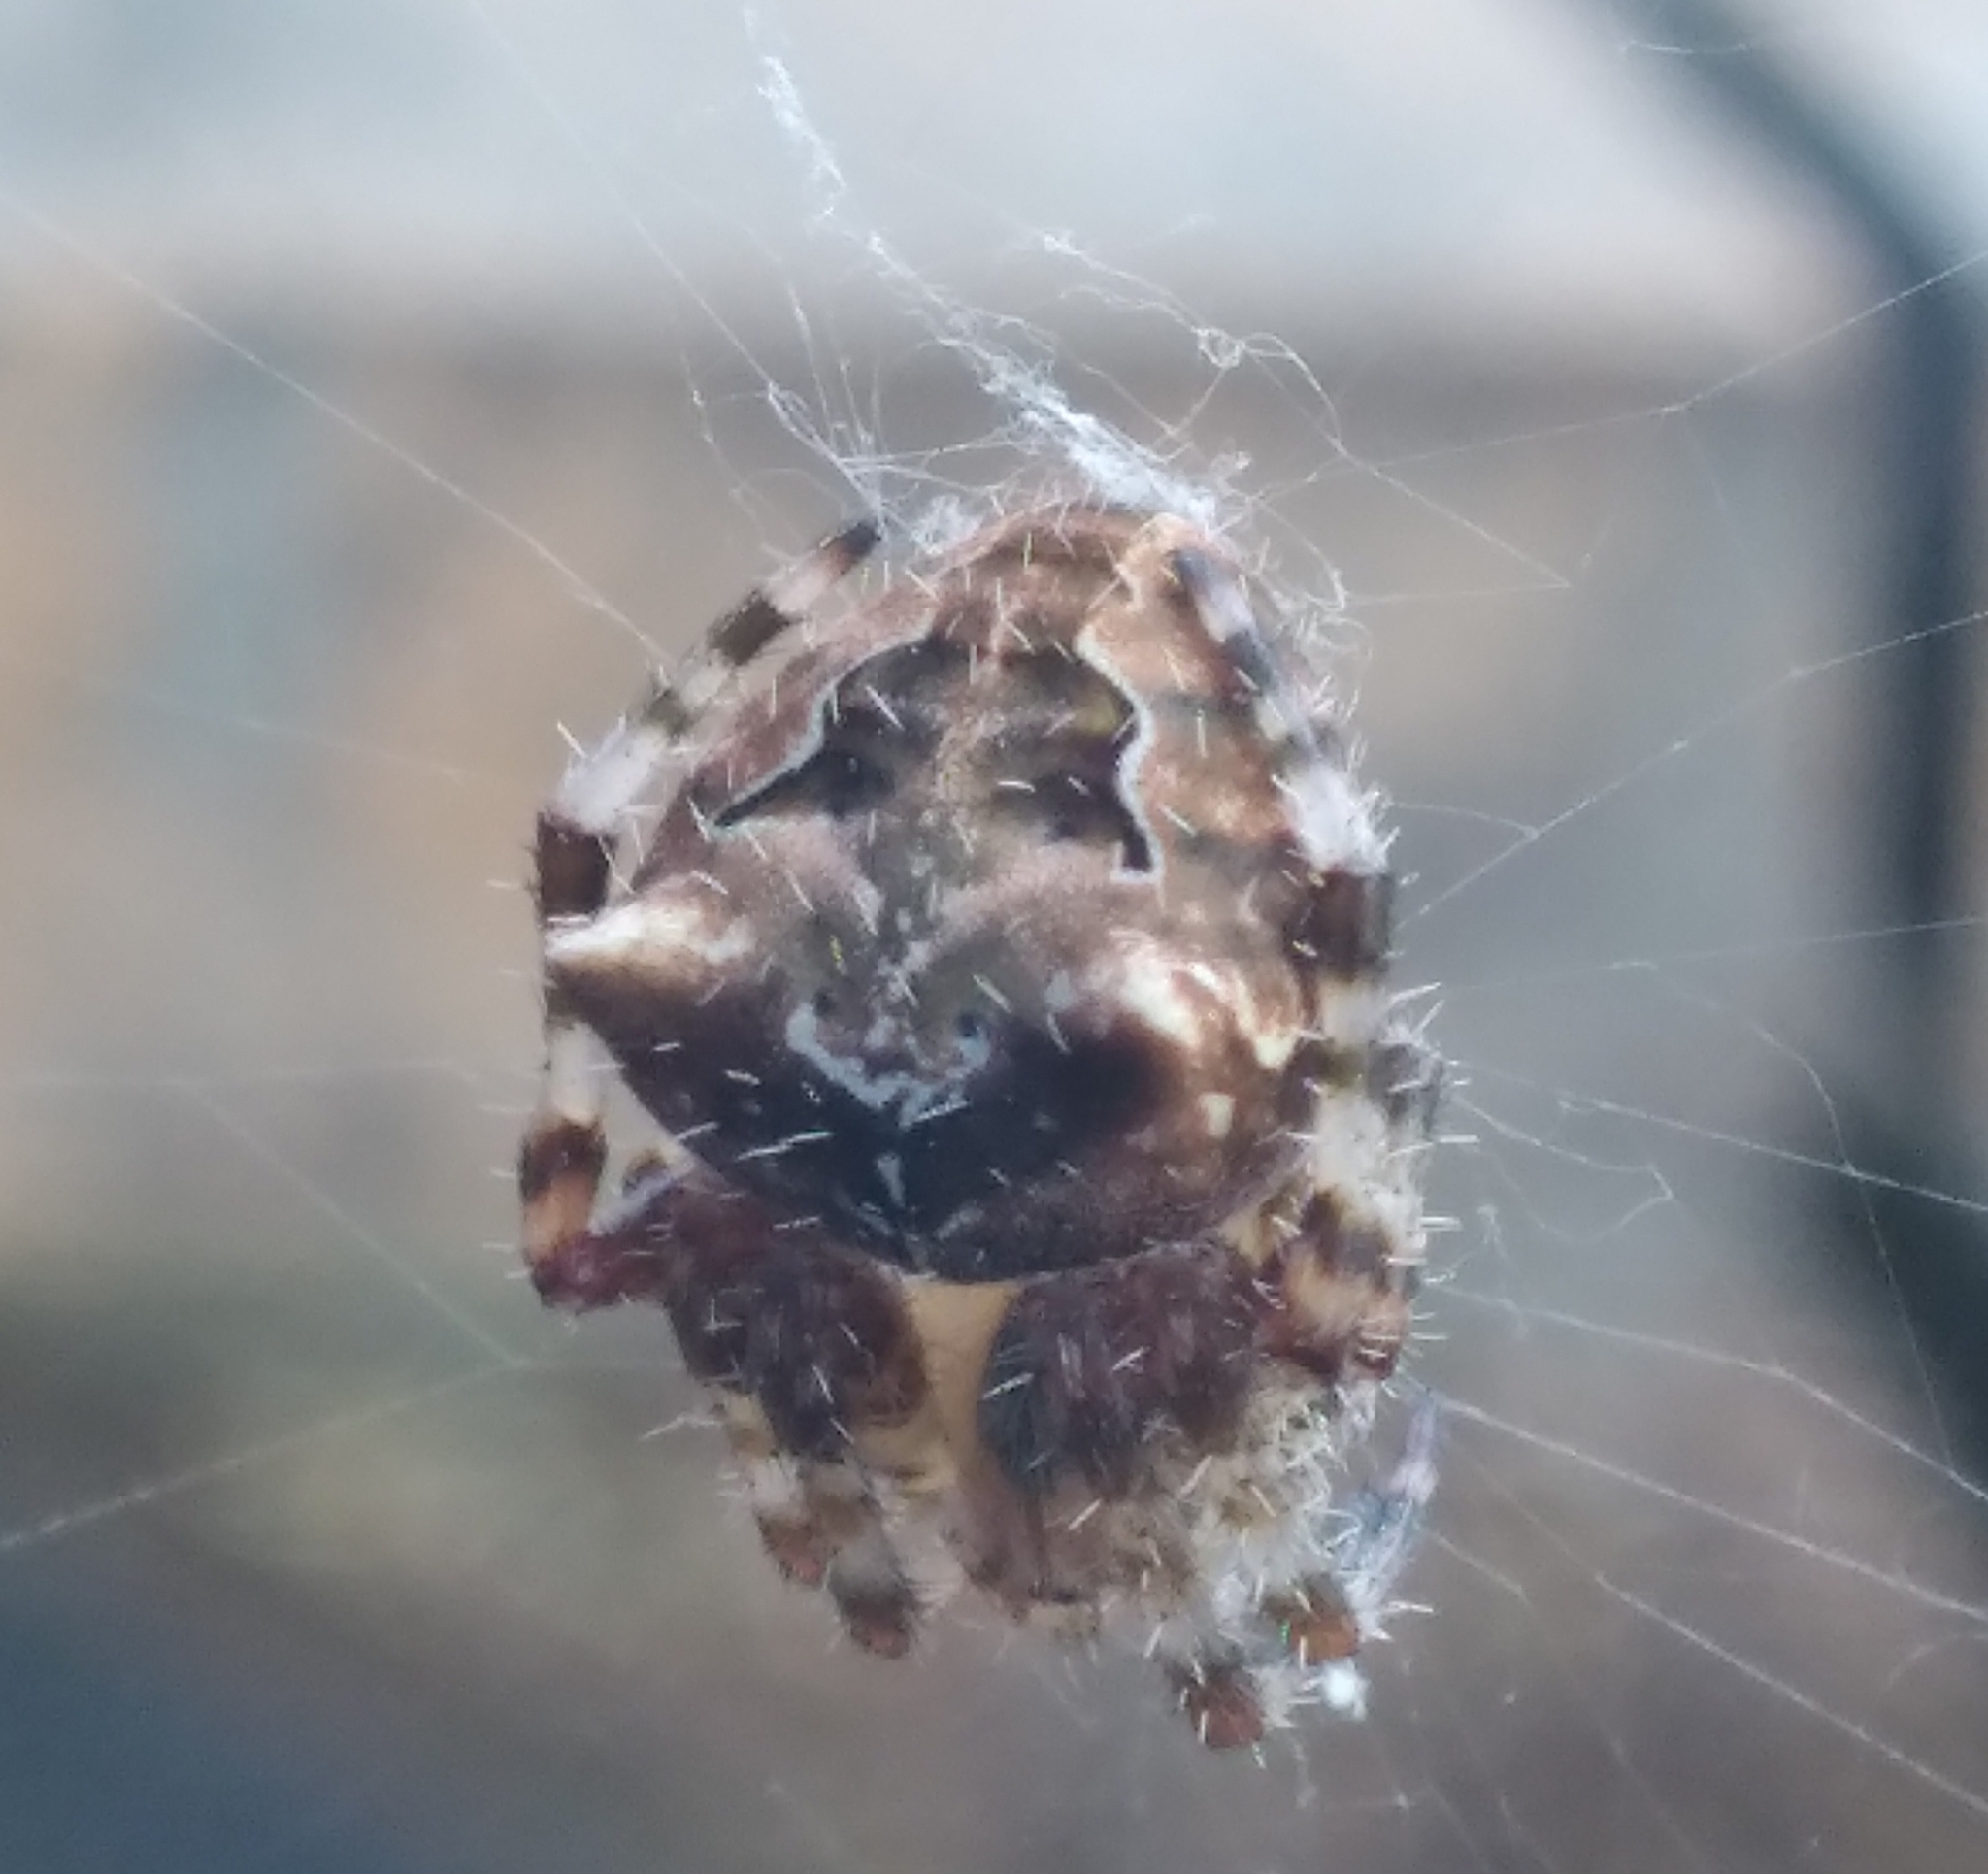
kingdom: Animalia
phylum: Arthropoda
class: Arachnida
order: Araneae
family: Araneidae
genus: Araneus
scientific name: Araneus gemmoides
